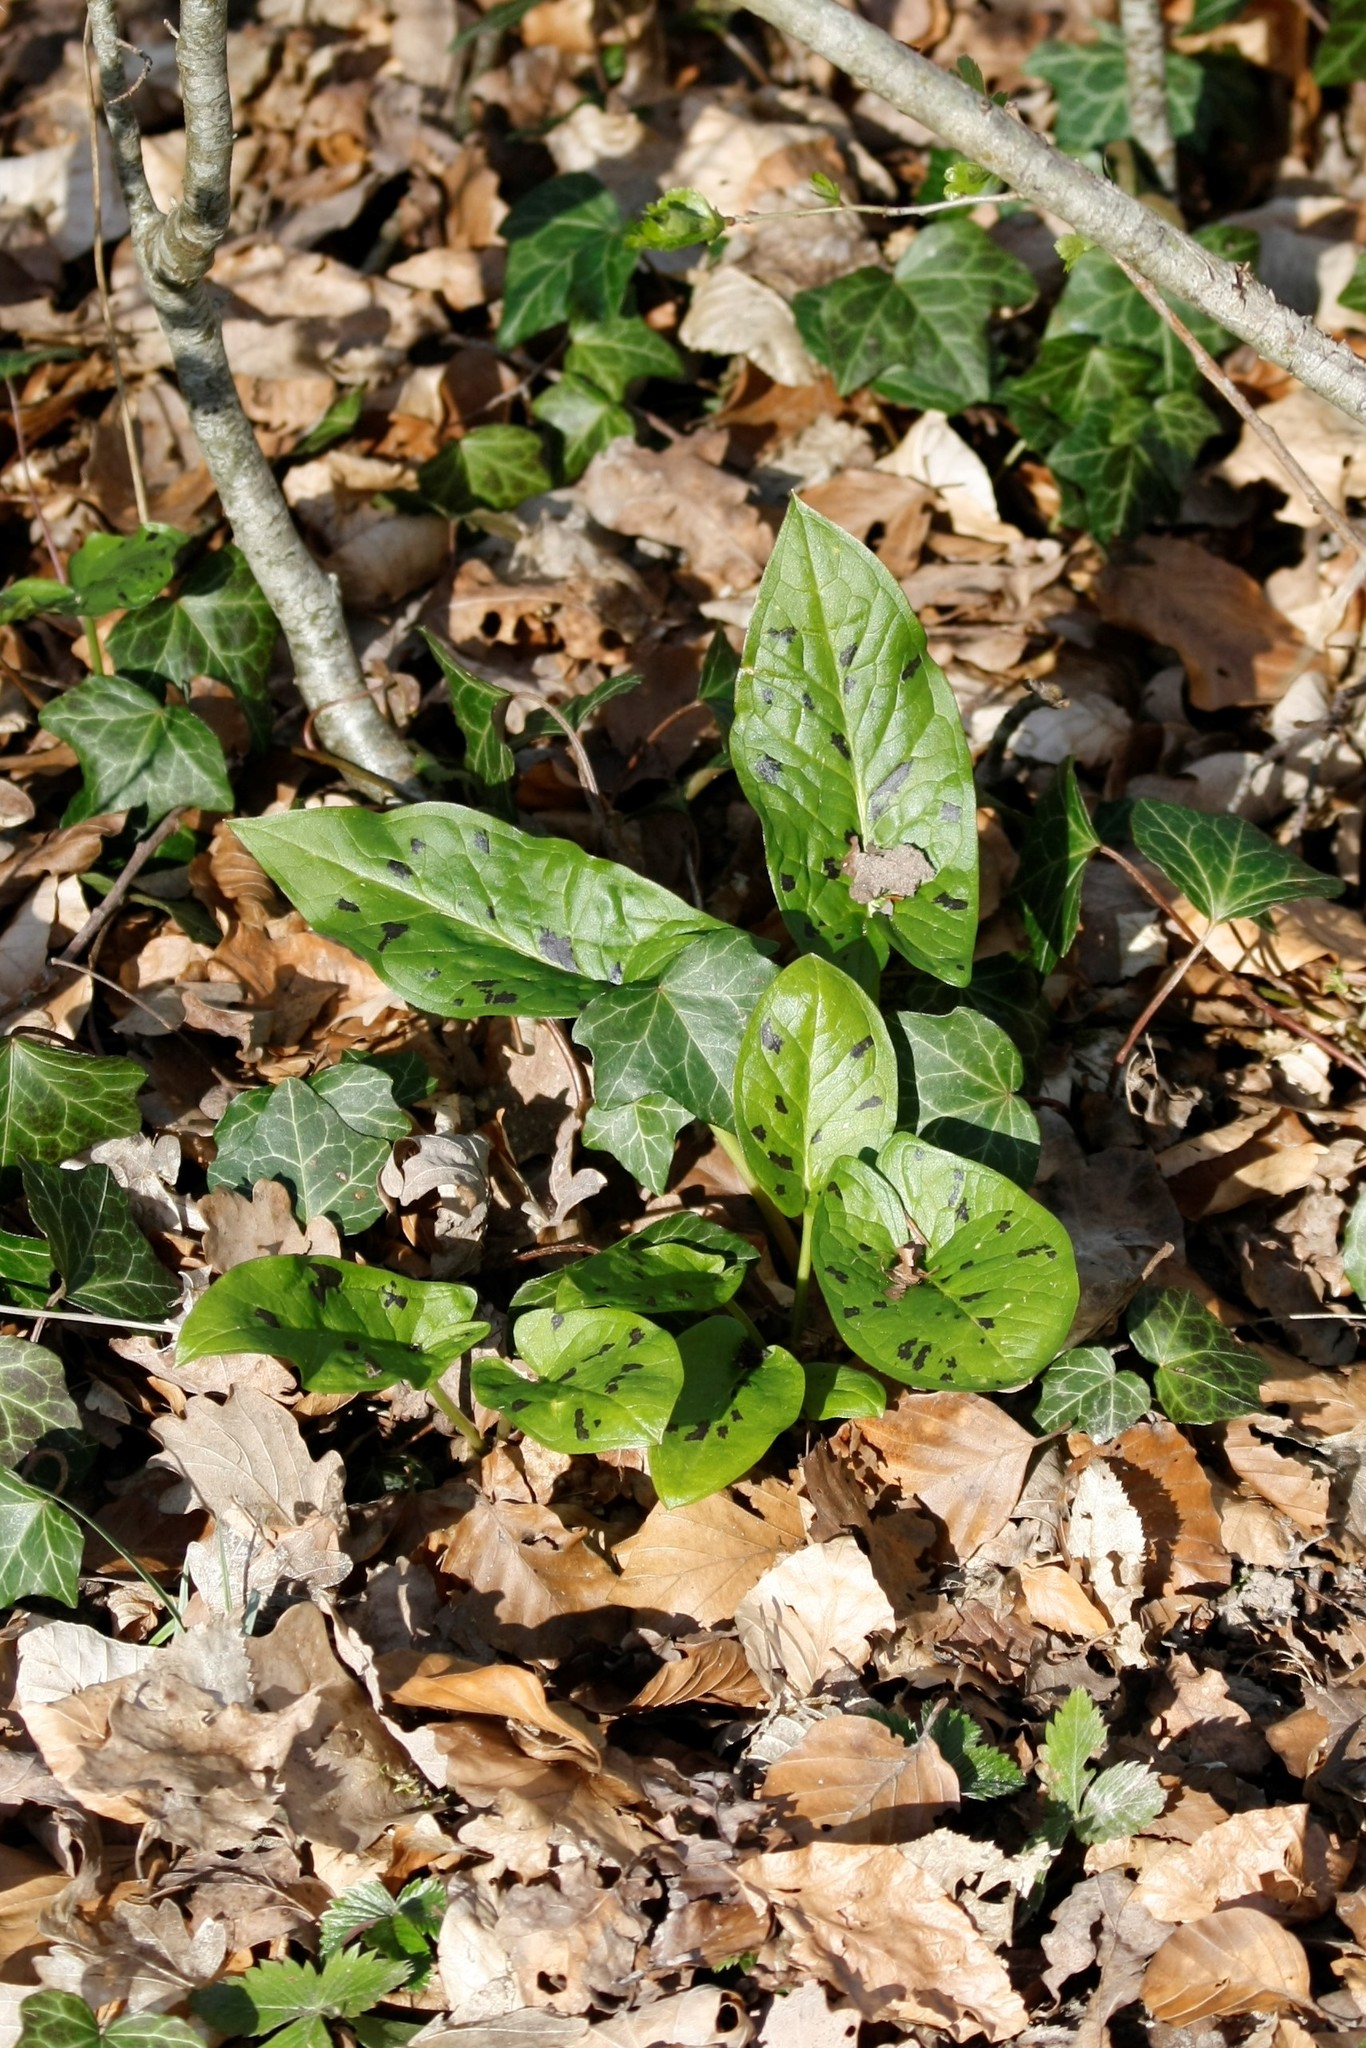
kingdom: Plantae
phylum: Tracheophyta
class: Liliopsida
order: Alismatales
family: Araceae
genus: Arum
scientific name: Arum maculatum
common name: Lords-and-ladies
